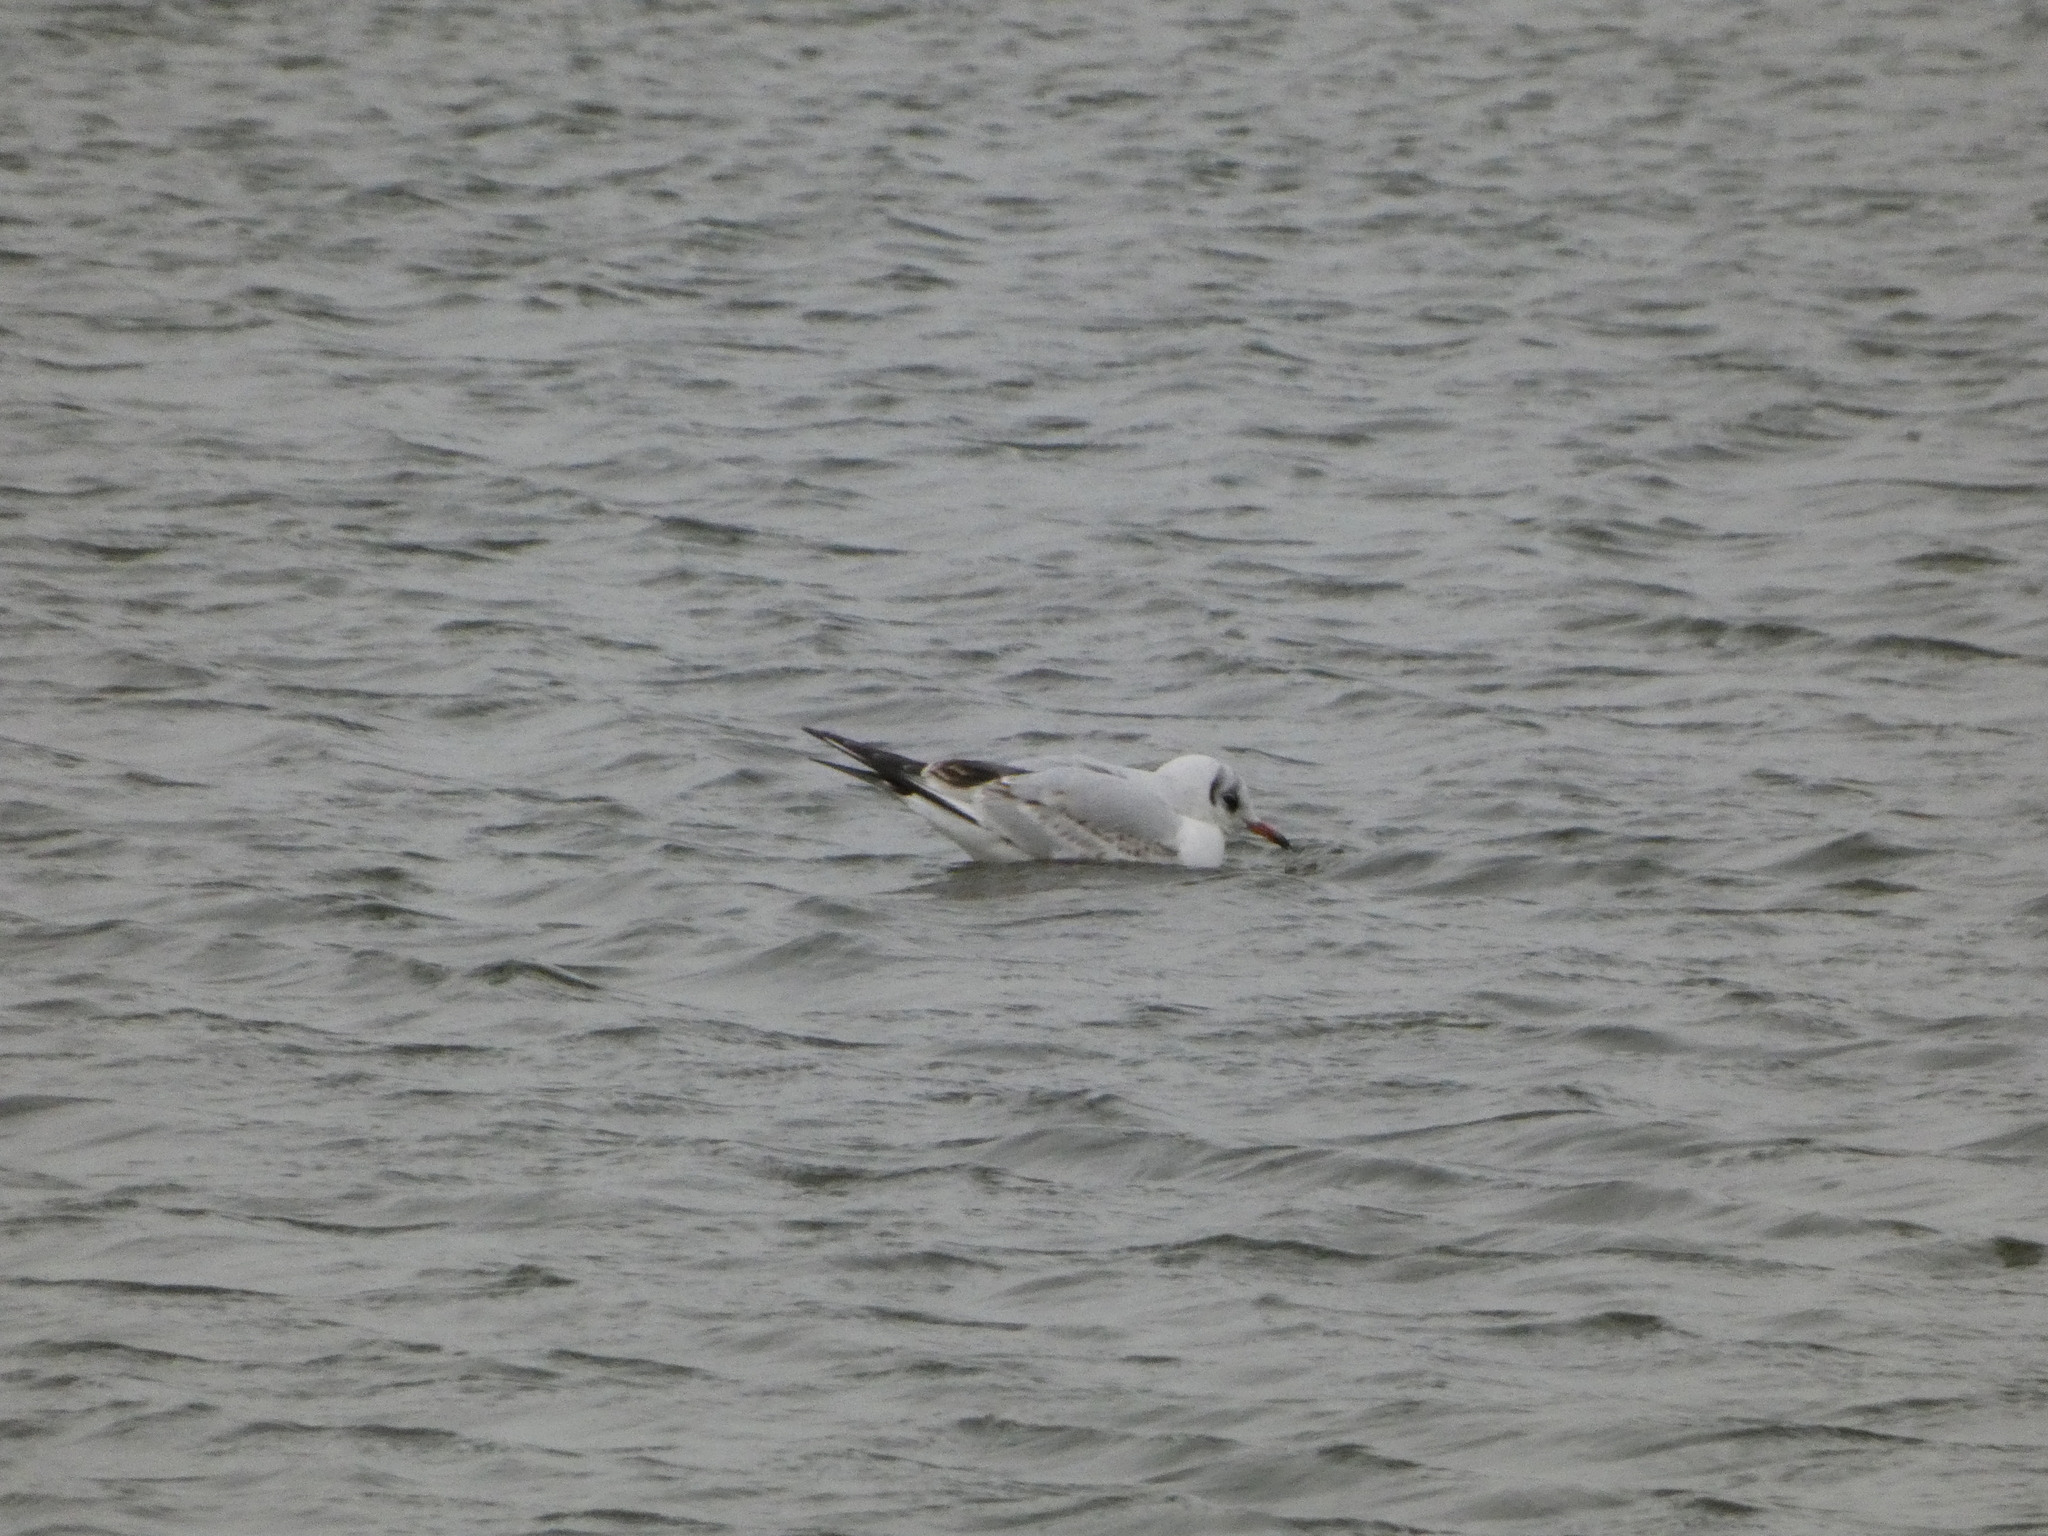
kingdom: Animalia
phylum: Chordata
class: Aves
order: Charadriiformes
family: Laridae
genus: Chroicocephalus
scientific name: Chroicocephalus ridibundus
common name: Black-headed gull
